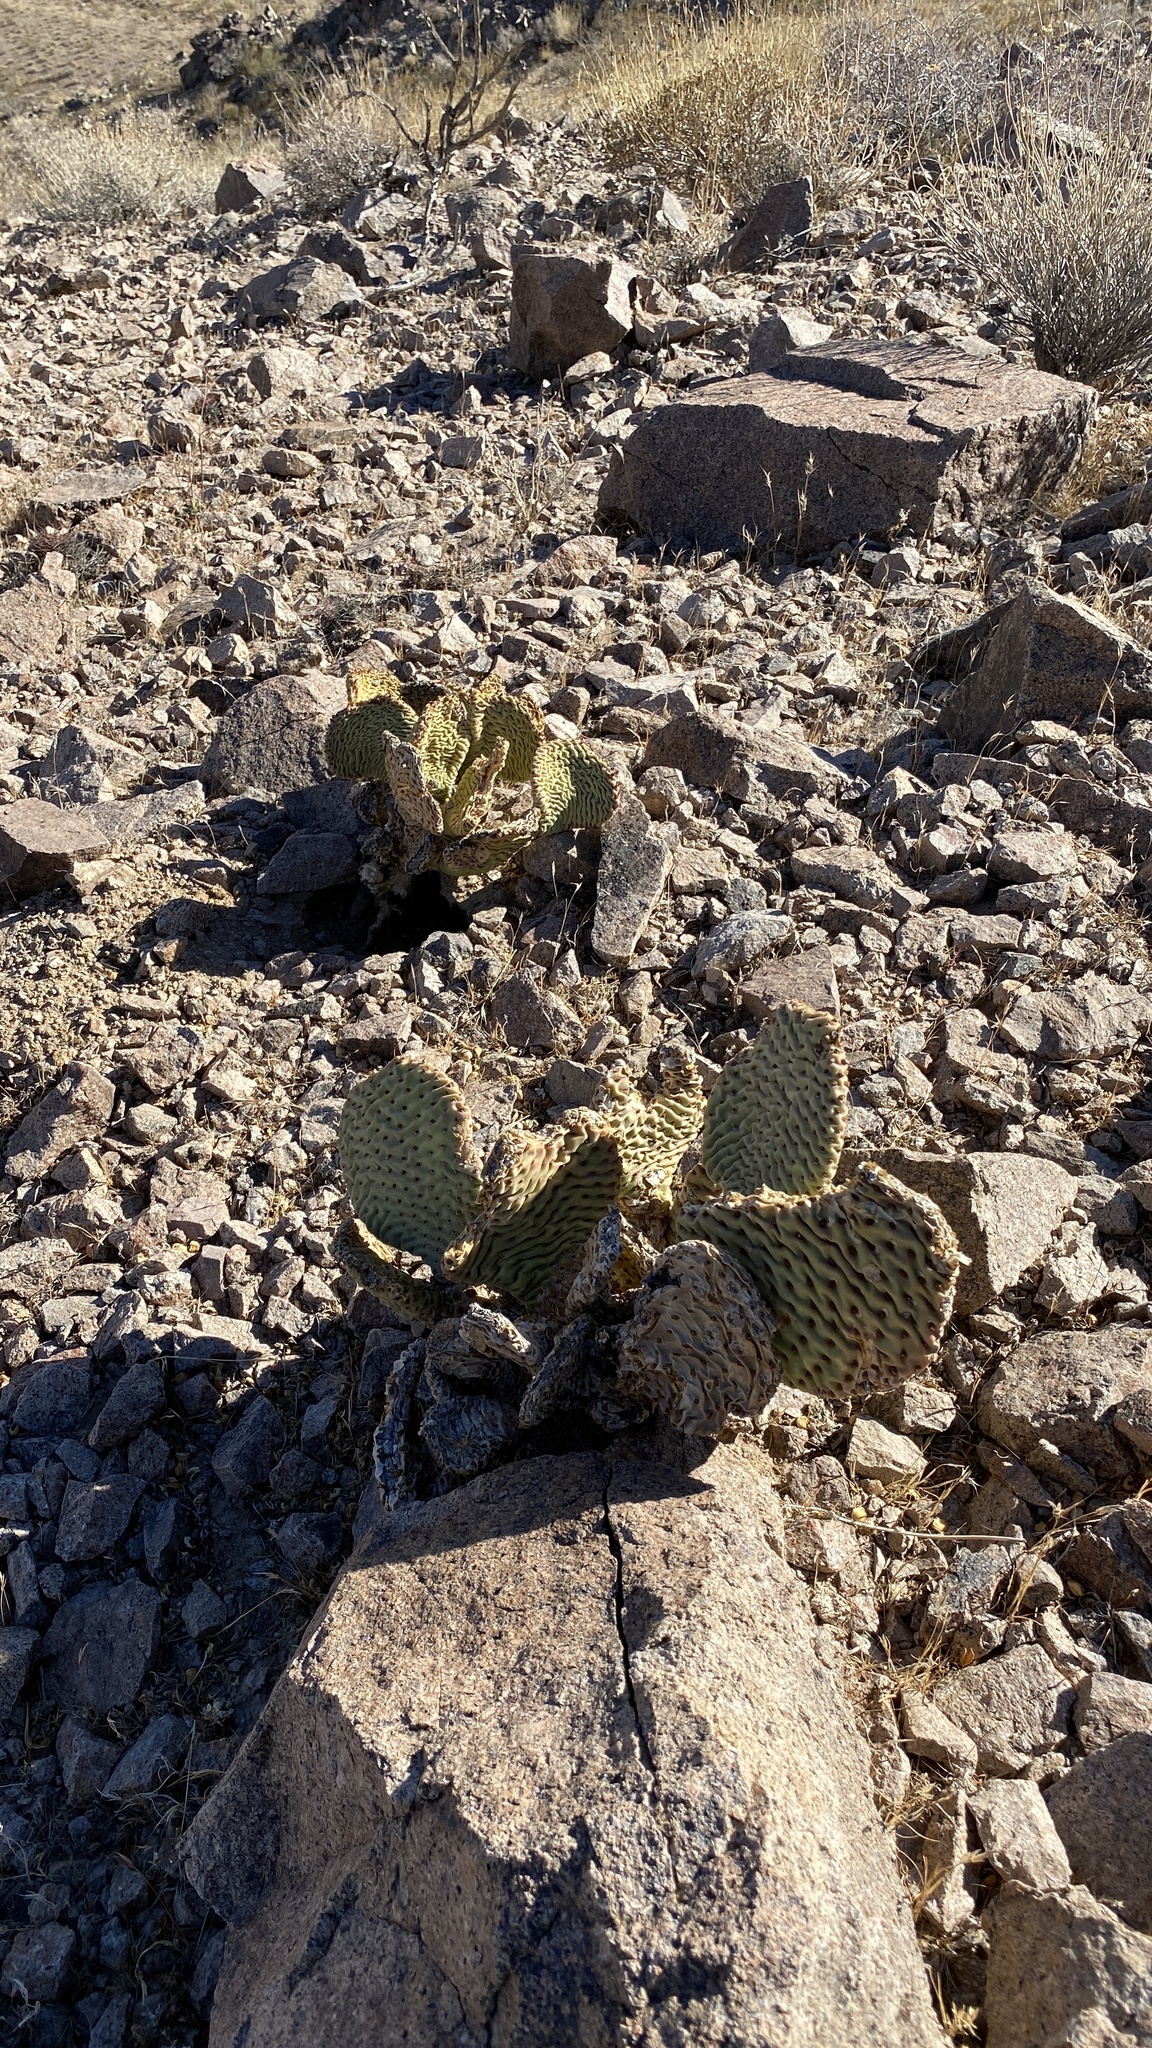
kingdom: Plantae
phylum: Tracheophyta
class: Magnoliopsida
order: Caryophyllales
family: Cactaceae
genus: Opuntia
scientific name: Opuntia basilaris
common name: Beavertail prickly-pear
